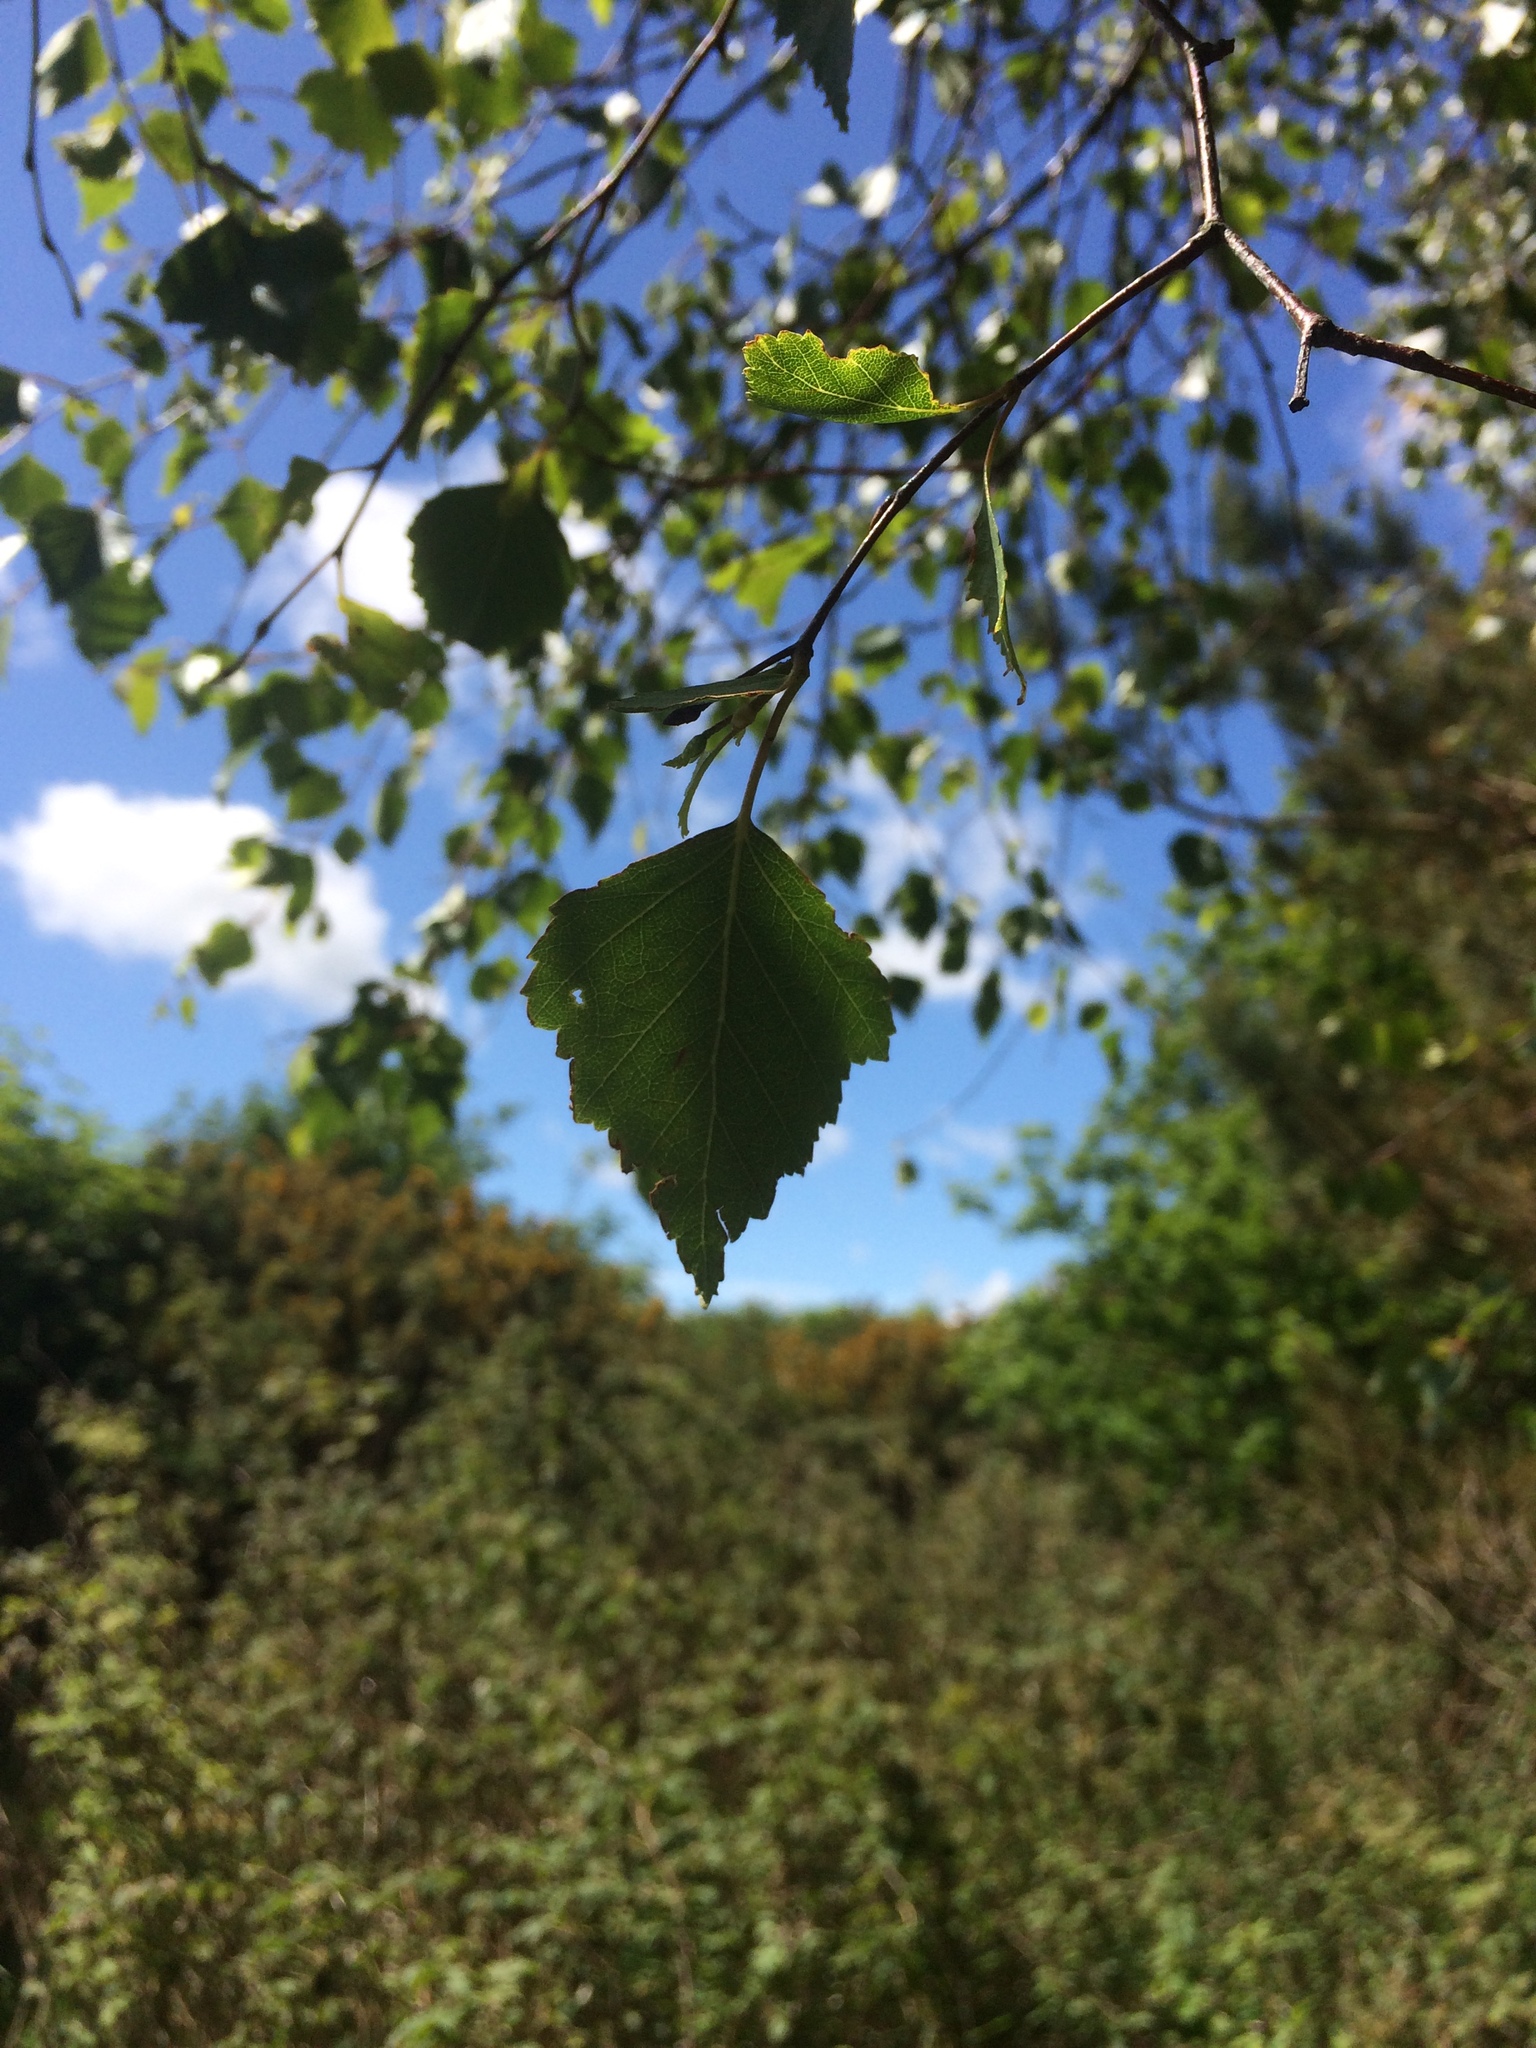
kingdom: Plantae
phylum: Tracheophyta
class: Magnoliopsida
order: Fagales
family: Betulaceae
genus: Betula
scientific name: Betula pendula
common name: Silver birch
